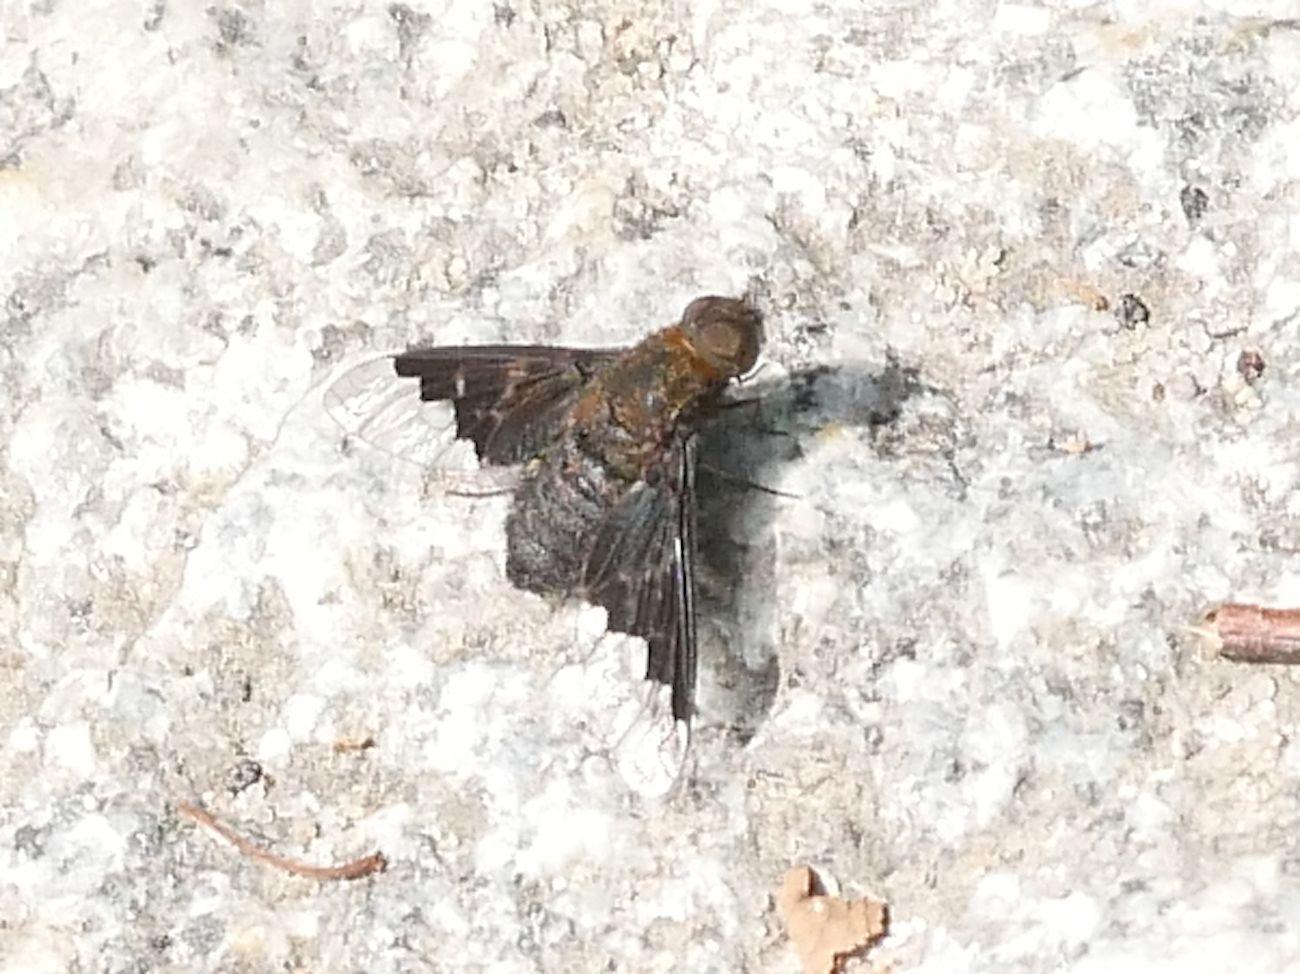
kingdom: Animalia
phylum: Arthropoda
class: Insecta
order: Diptera
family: Bombyliidae
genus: Hemipenthes
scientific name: Hemipenthes morio
